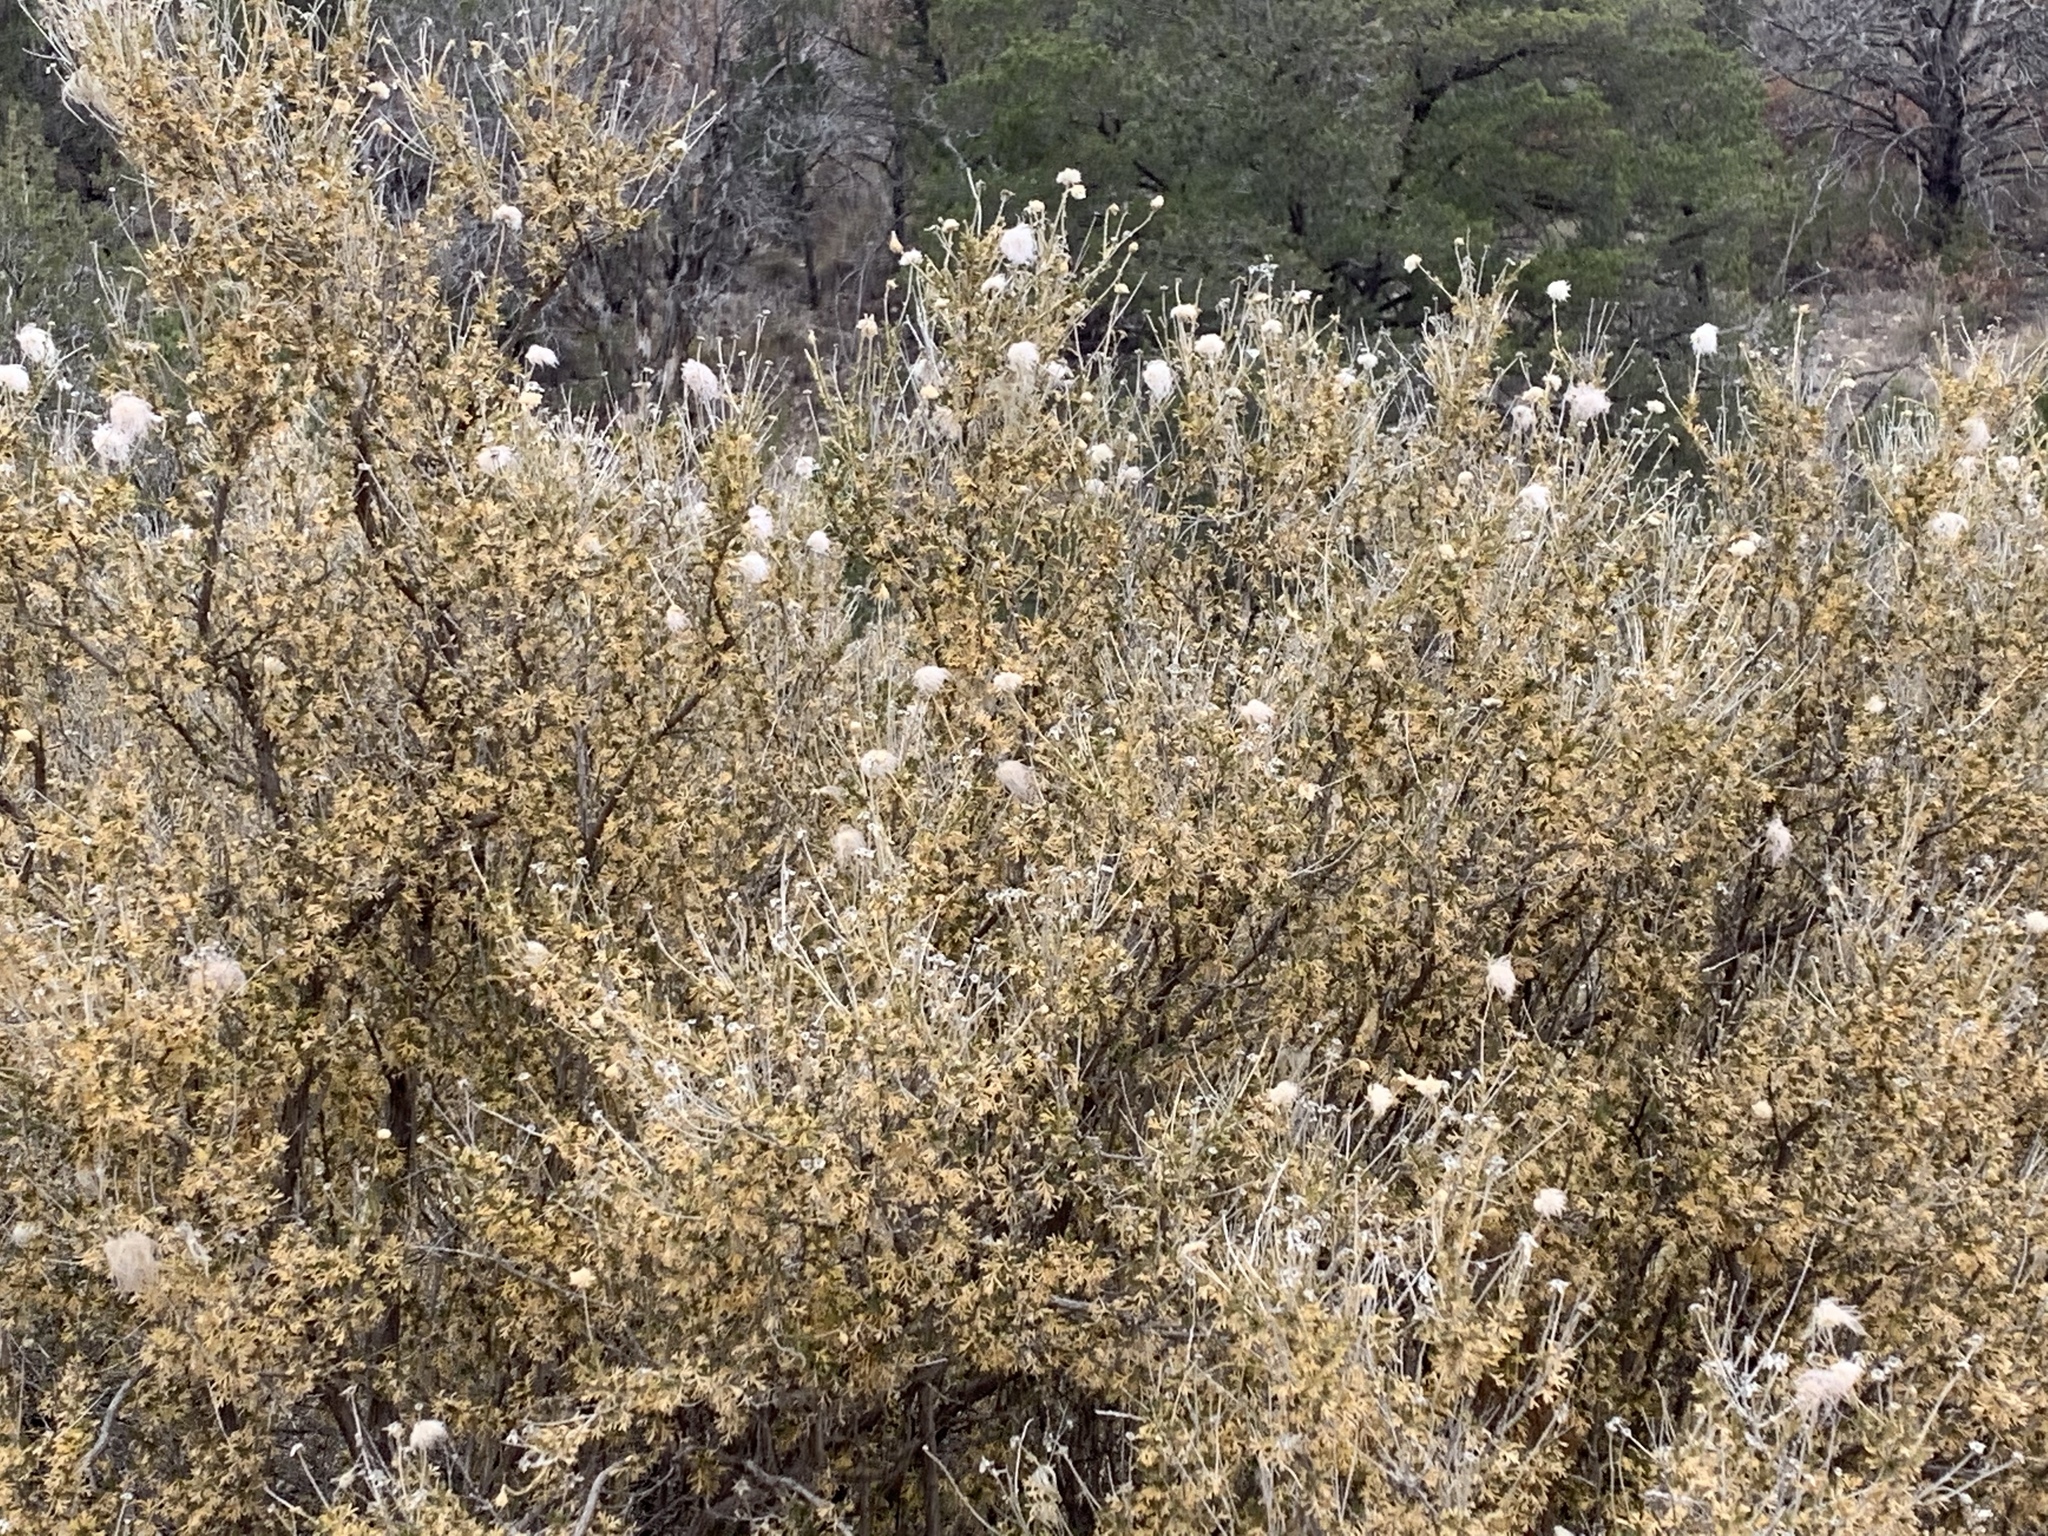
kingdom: Plantae
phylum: Tracheophyta
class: Magnoliopsida
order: Rosales
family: Rosaceae
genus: Fallugia
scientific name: Fallugia paradoxa
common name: Apache-plume
